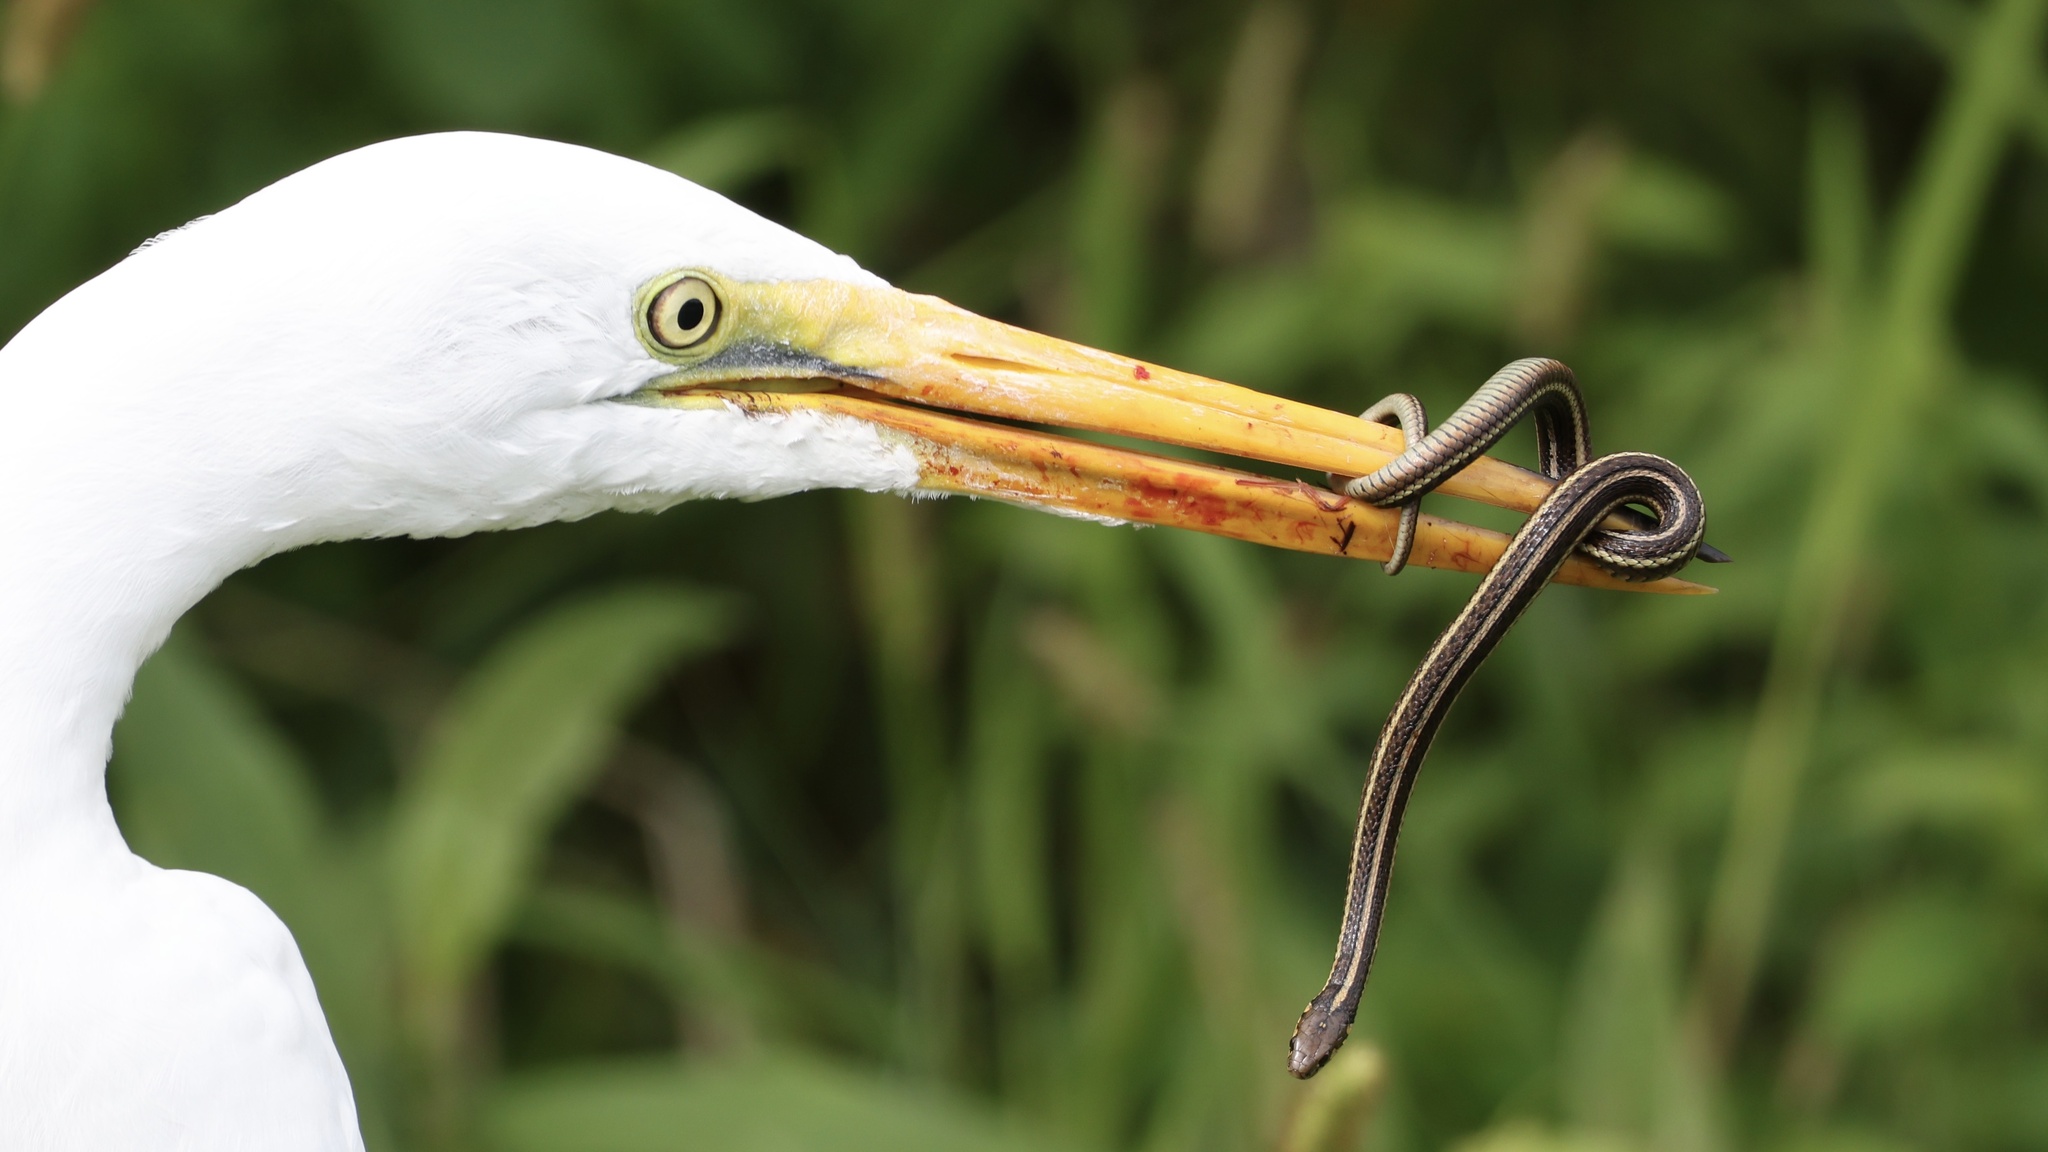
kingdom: Animalia
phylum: Chordata
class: Aves
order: Pelecaniformes
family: Ardeidae
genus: Ardea
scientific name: Ardea alba
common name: Great egret
